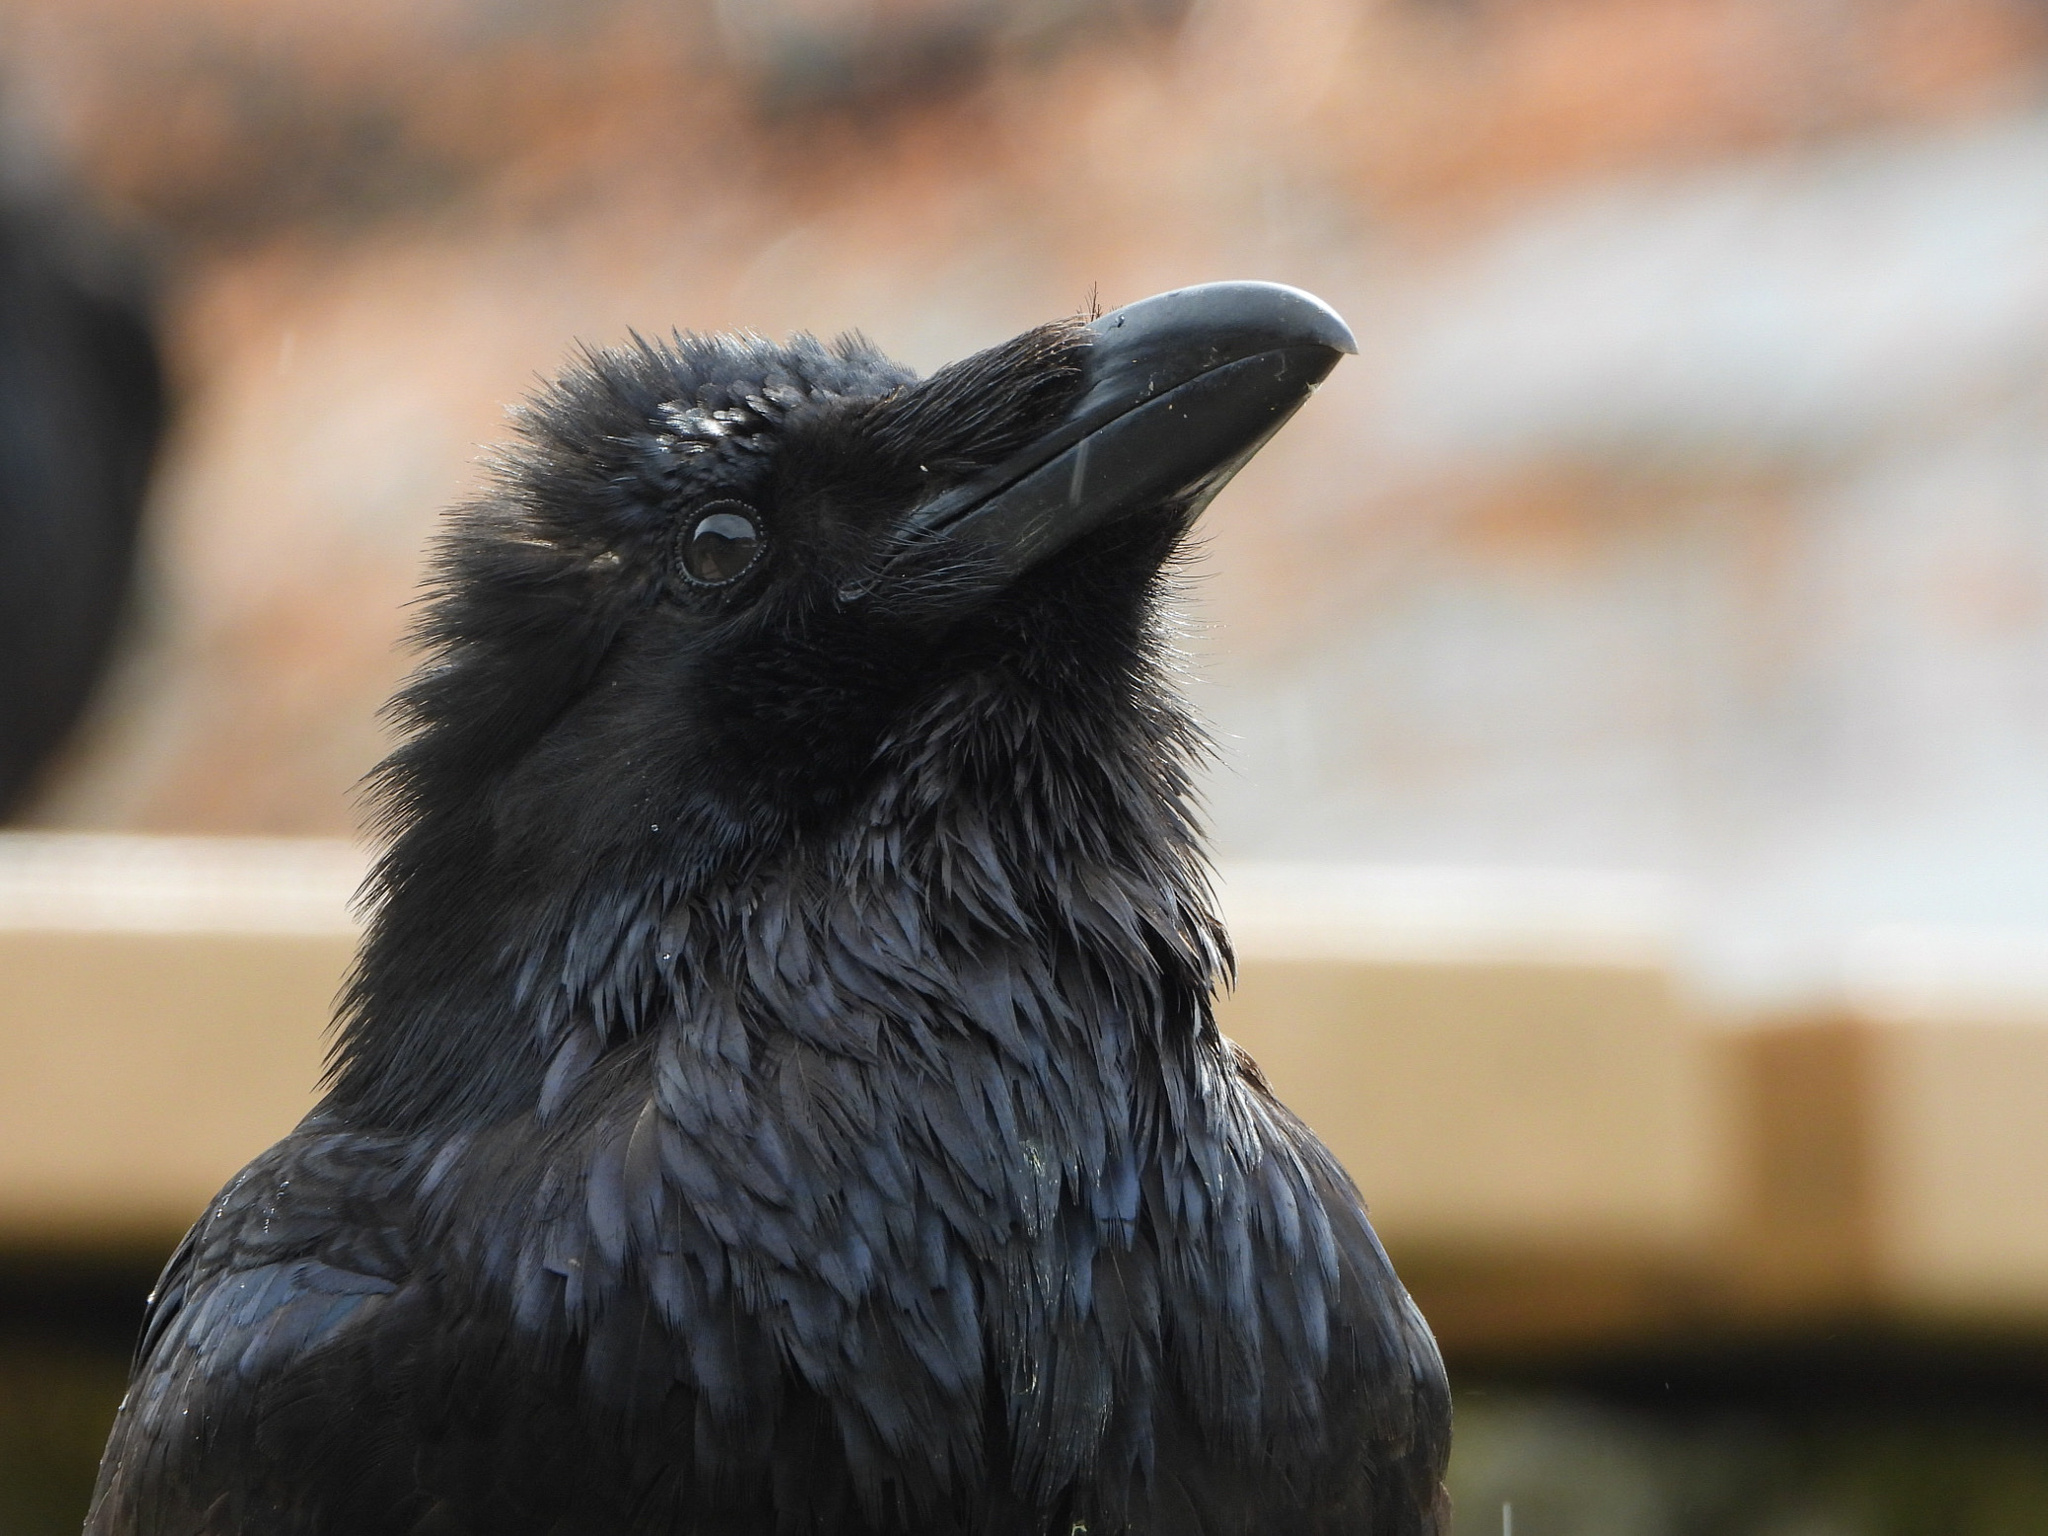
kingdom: Animalia
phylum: Chordata
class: Aves
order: Passeriformes
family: Corvidae
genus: Corvus
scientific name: Corvus corax
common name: Common raven
